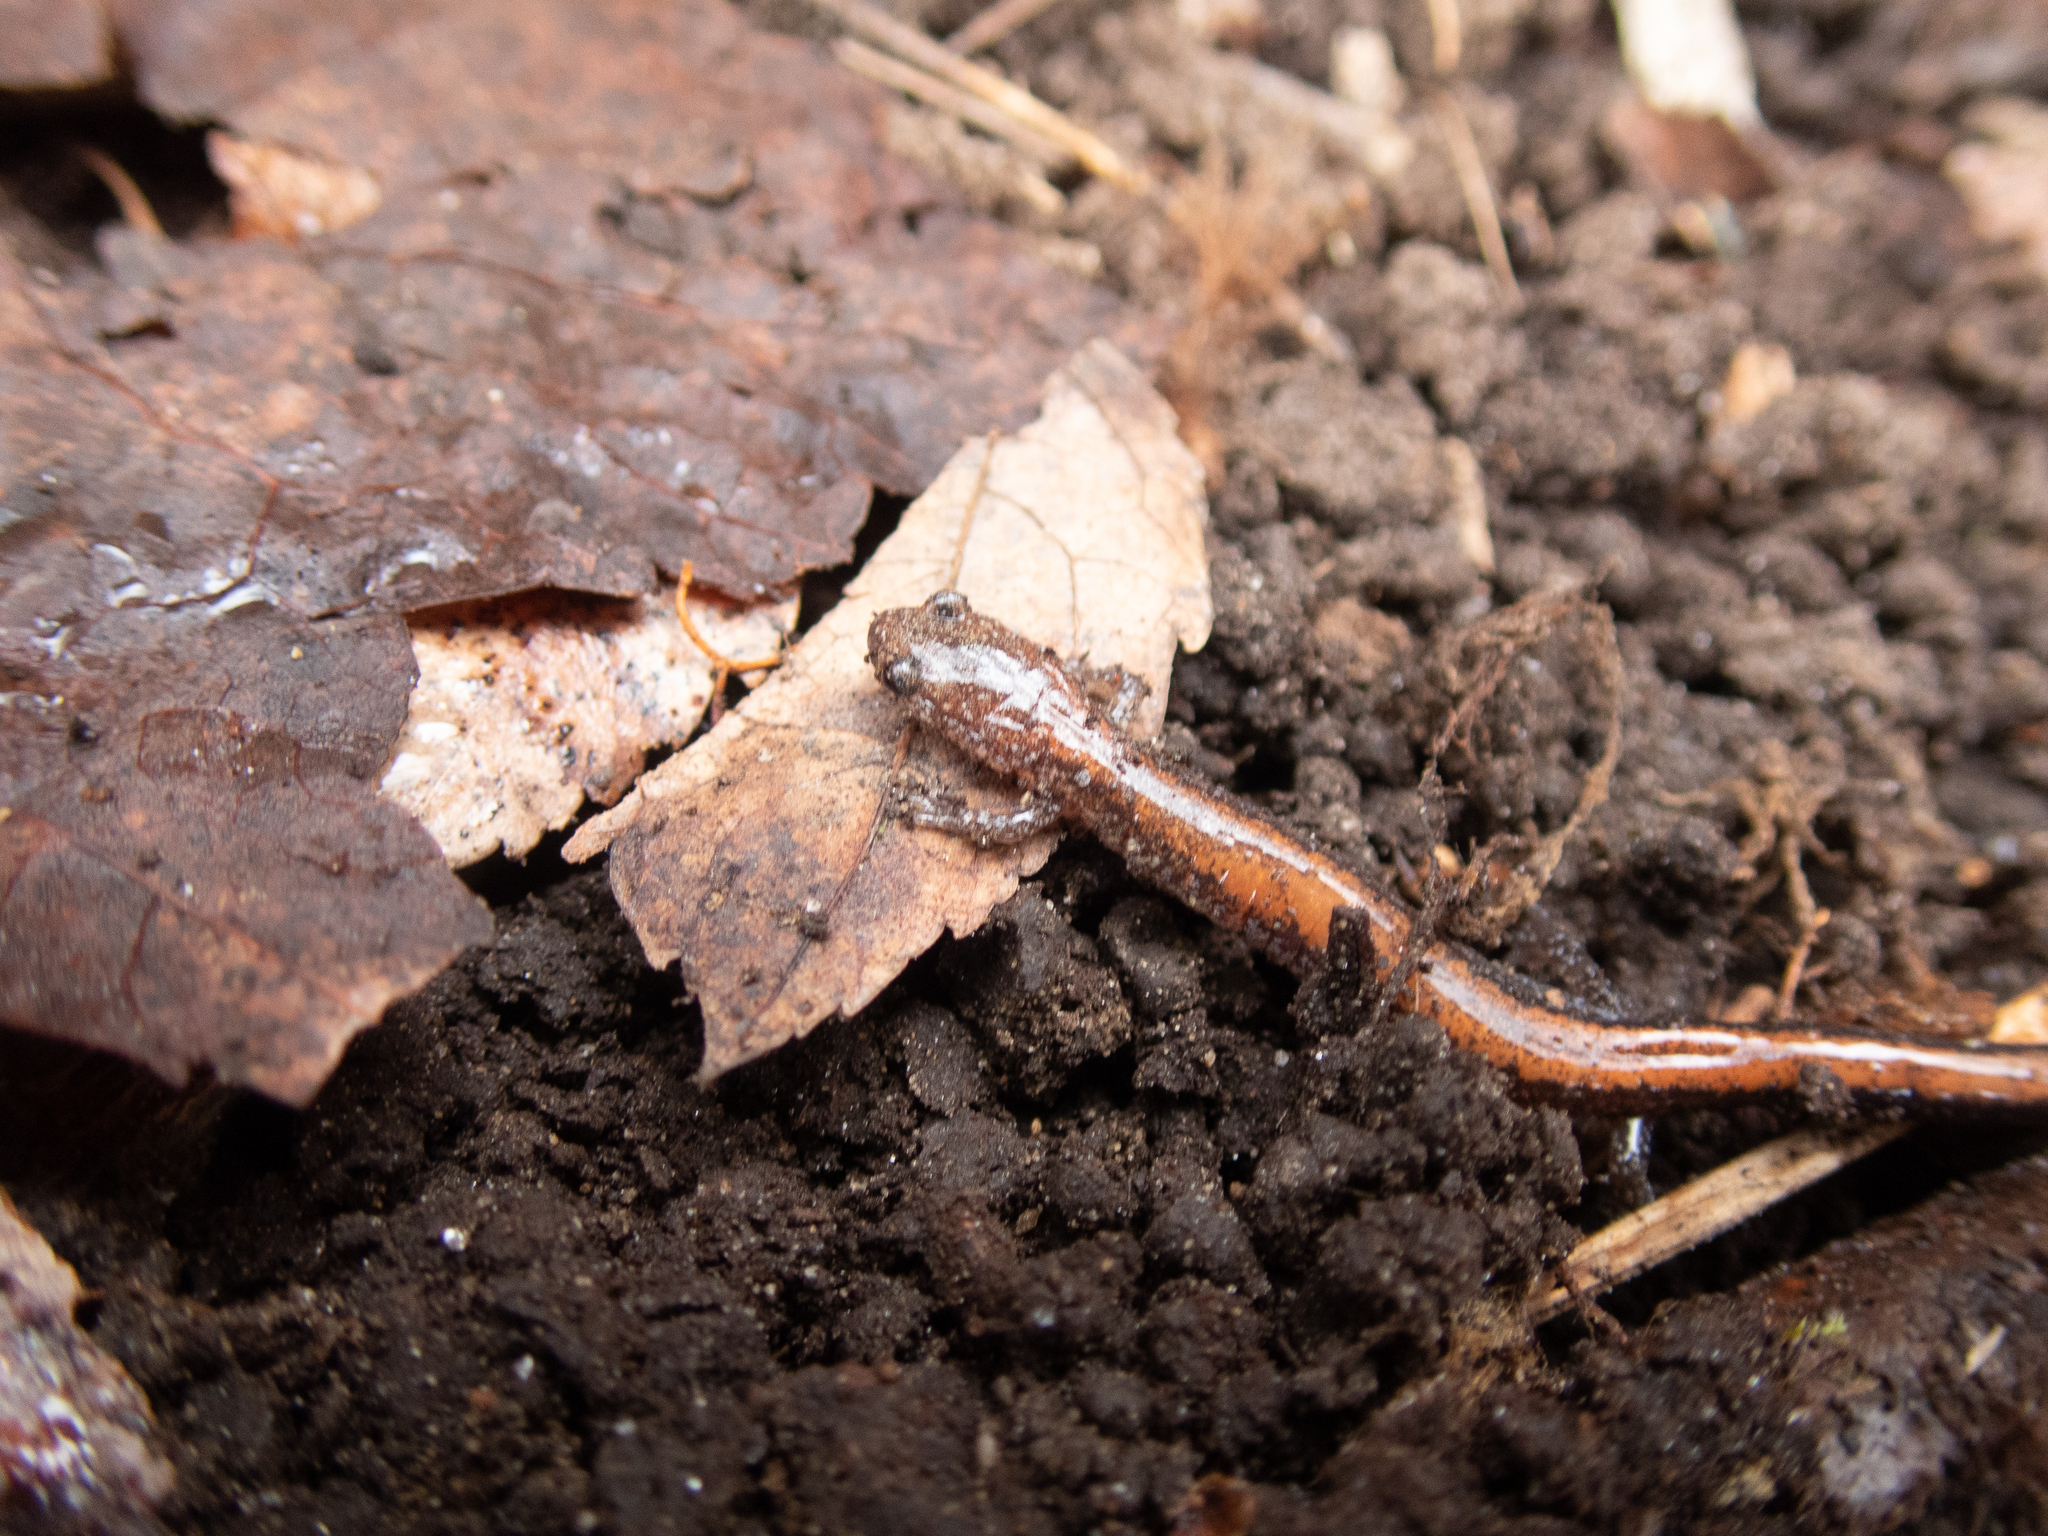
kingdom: Animalia
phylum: Chordata
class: Amphibia
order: Caudata
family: Plethodontidae
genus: Plethodon
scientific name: Plethodon cinereus
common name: Redback salamander
